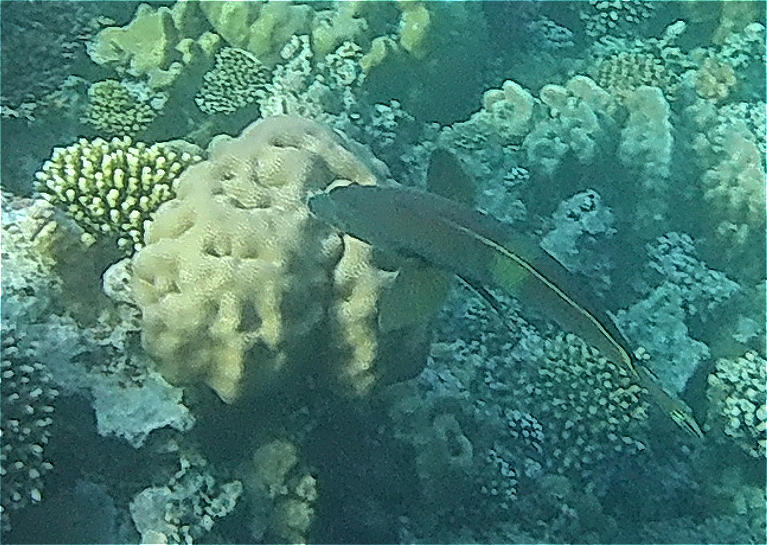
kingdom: Animalia
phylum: Chordata
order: Perciformes
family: Labridae
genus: Coris
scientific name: Coris aygula
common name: Clown coris
